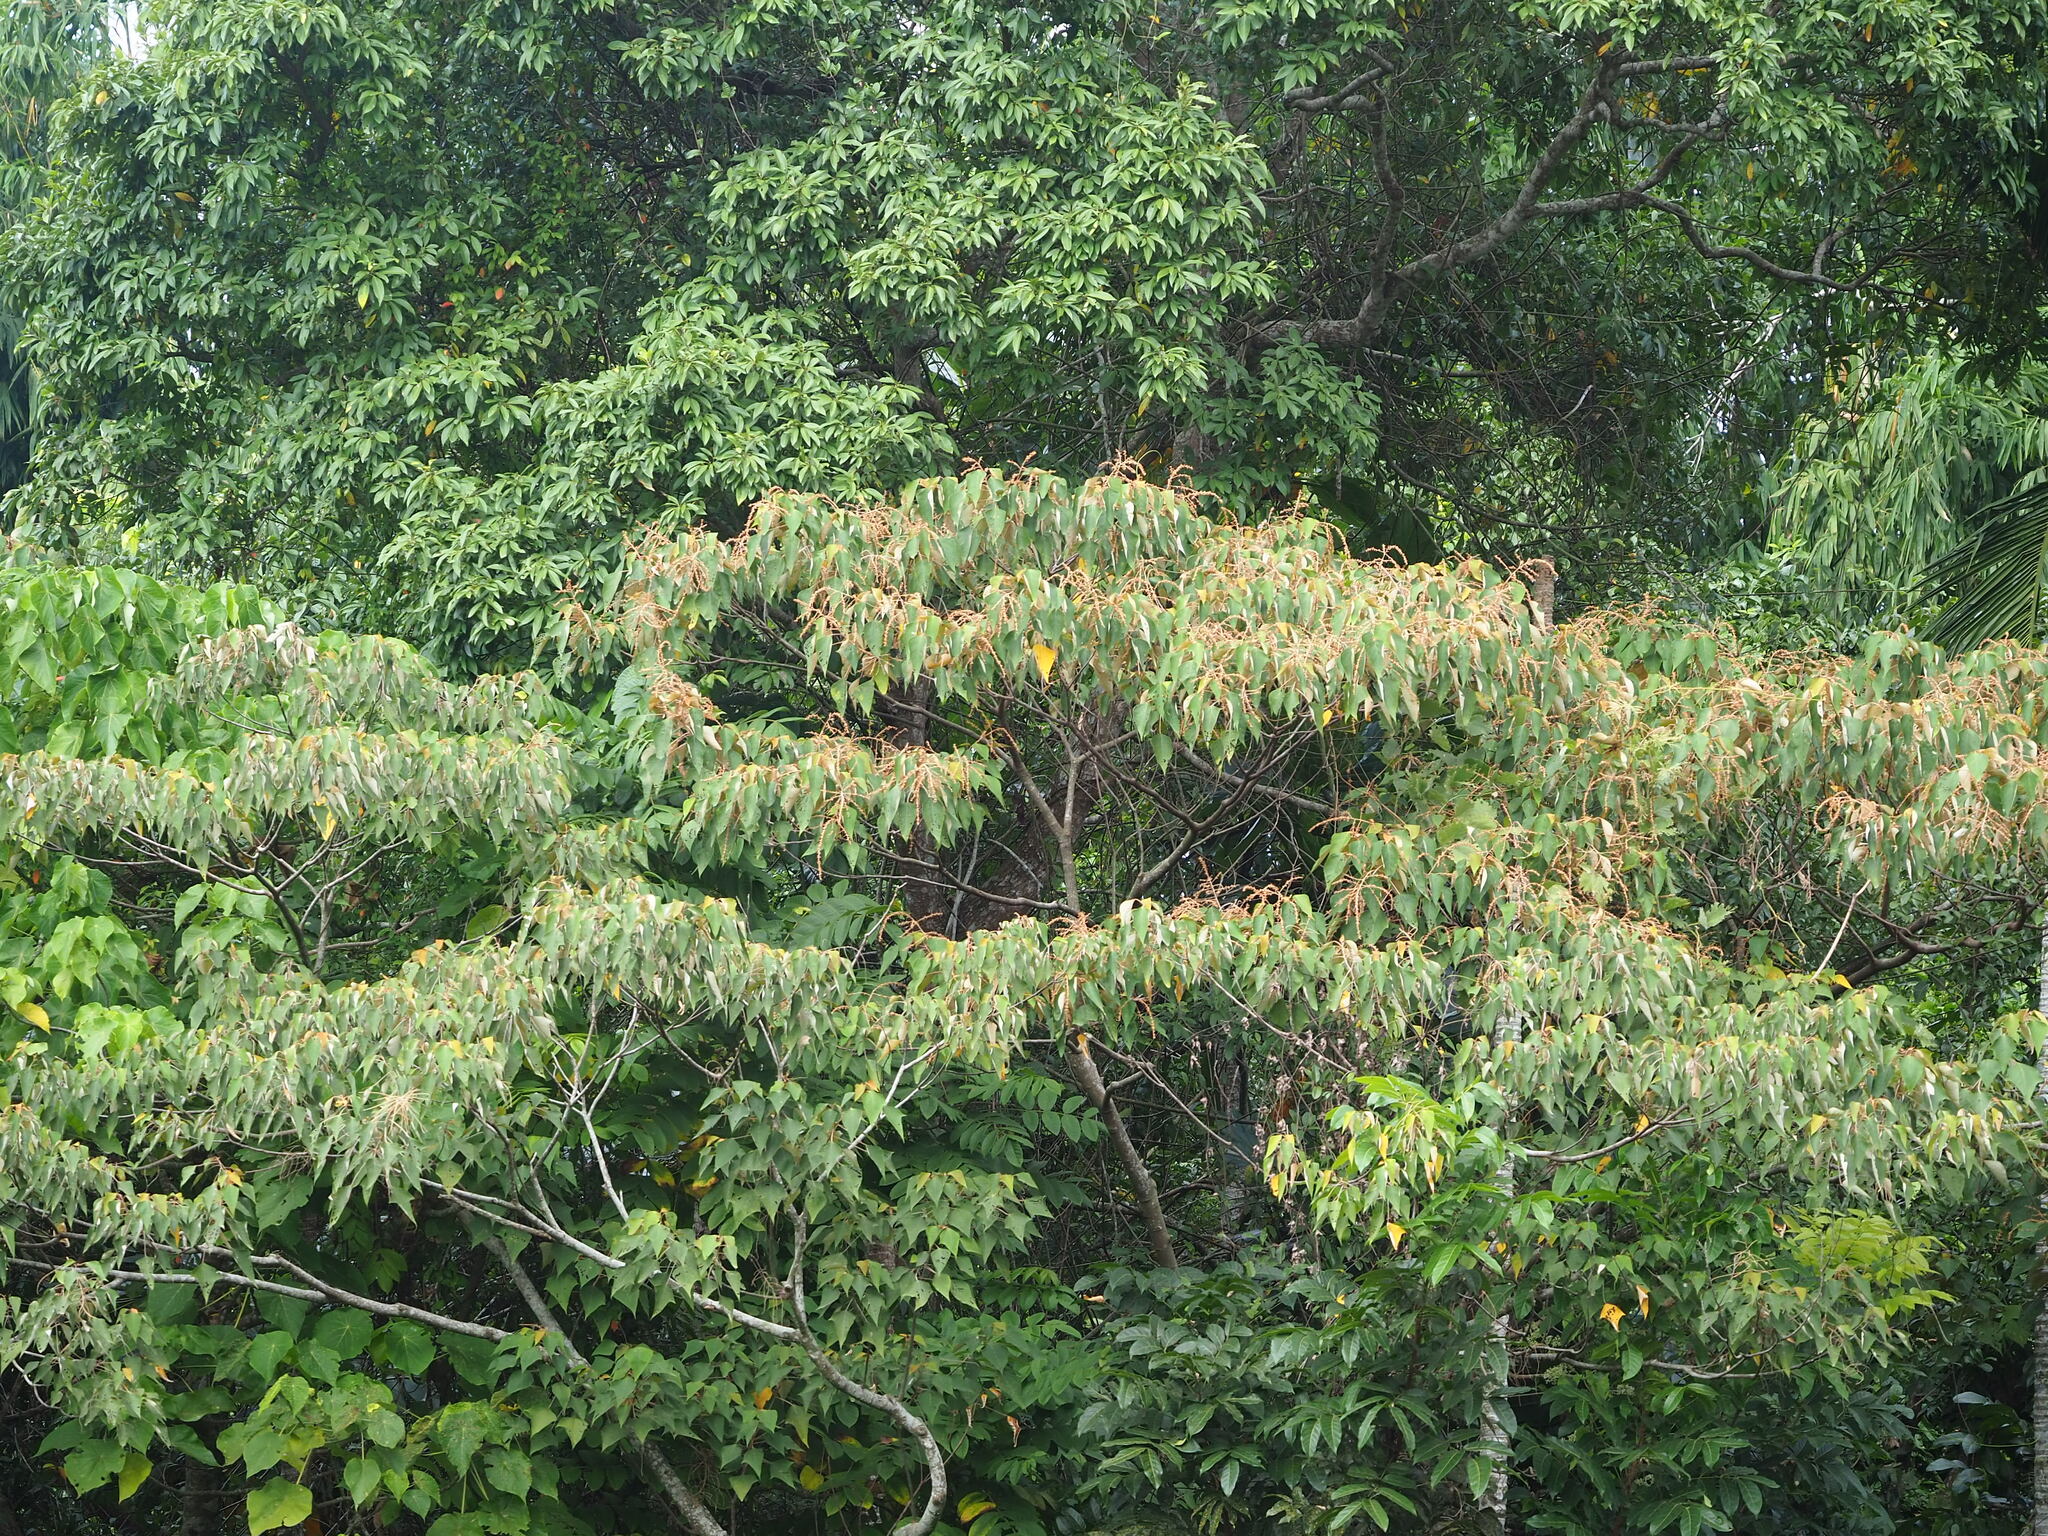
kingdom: Plantae
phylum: Tracheophyta
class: Magnoliopsida
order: Malpighiales
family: Euphorbiaceae
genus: Mallotus
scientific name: Mallotus paniculatus
